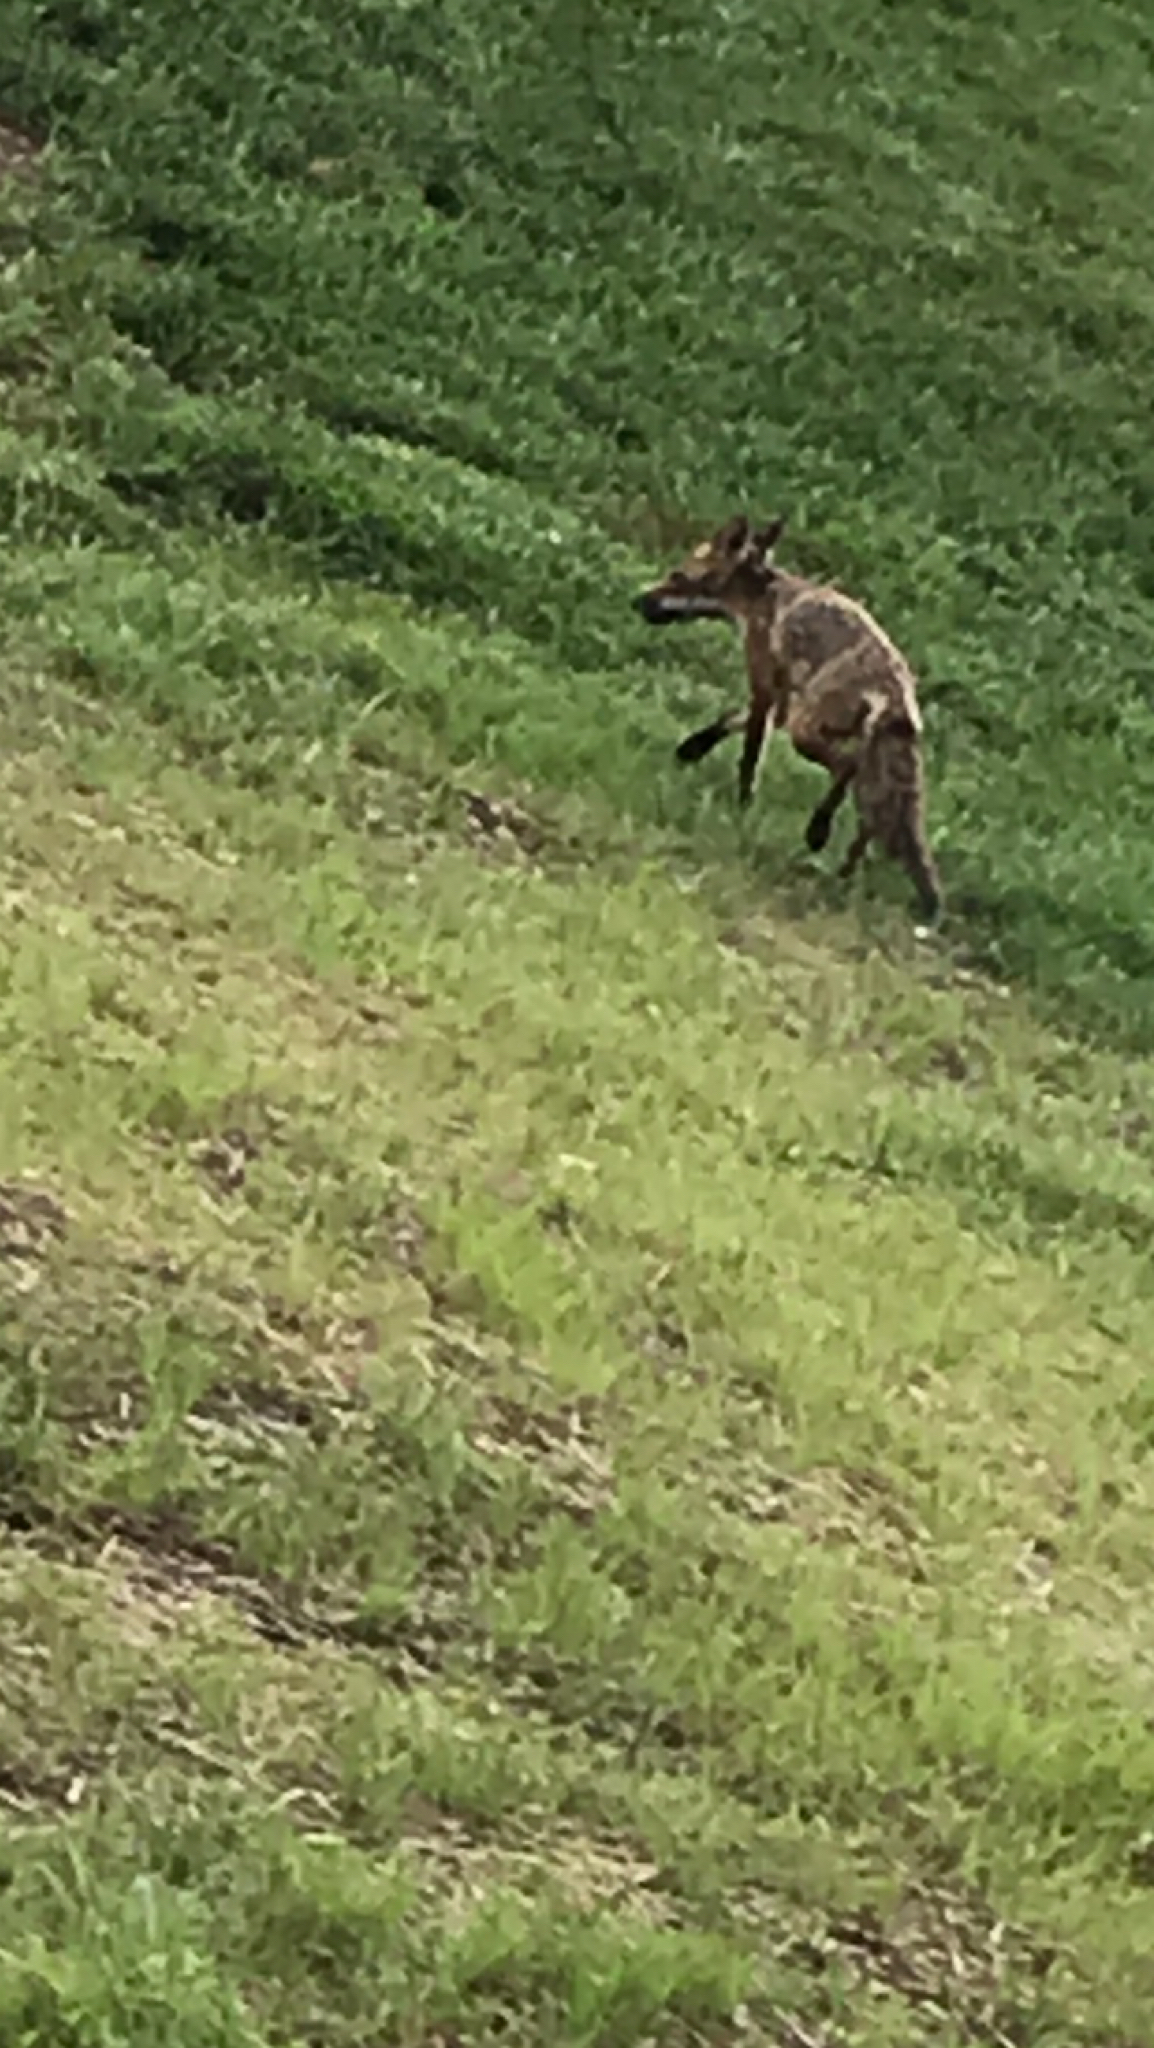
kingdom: Animalia
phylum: Chordata
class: Mammalia
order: Carnivora
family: Canidae
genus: Vulpes
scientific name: Vulpes vulpes
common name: Red fox
